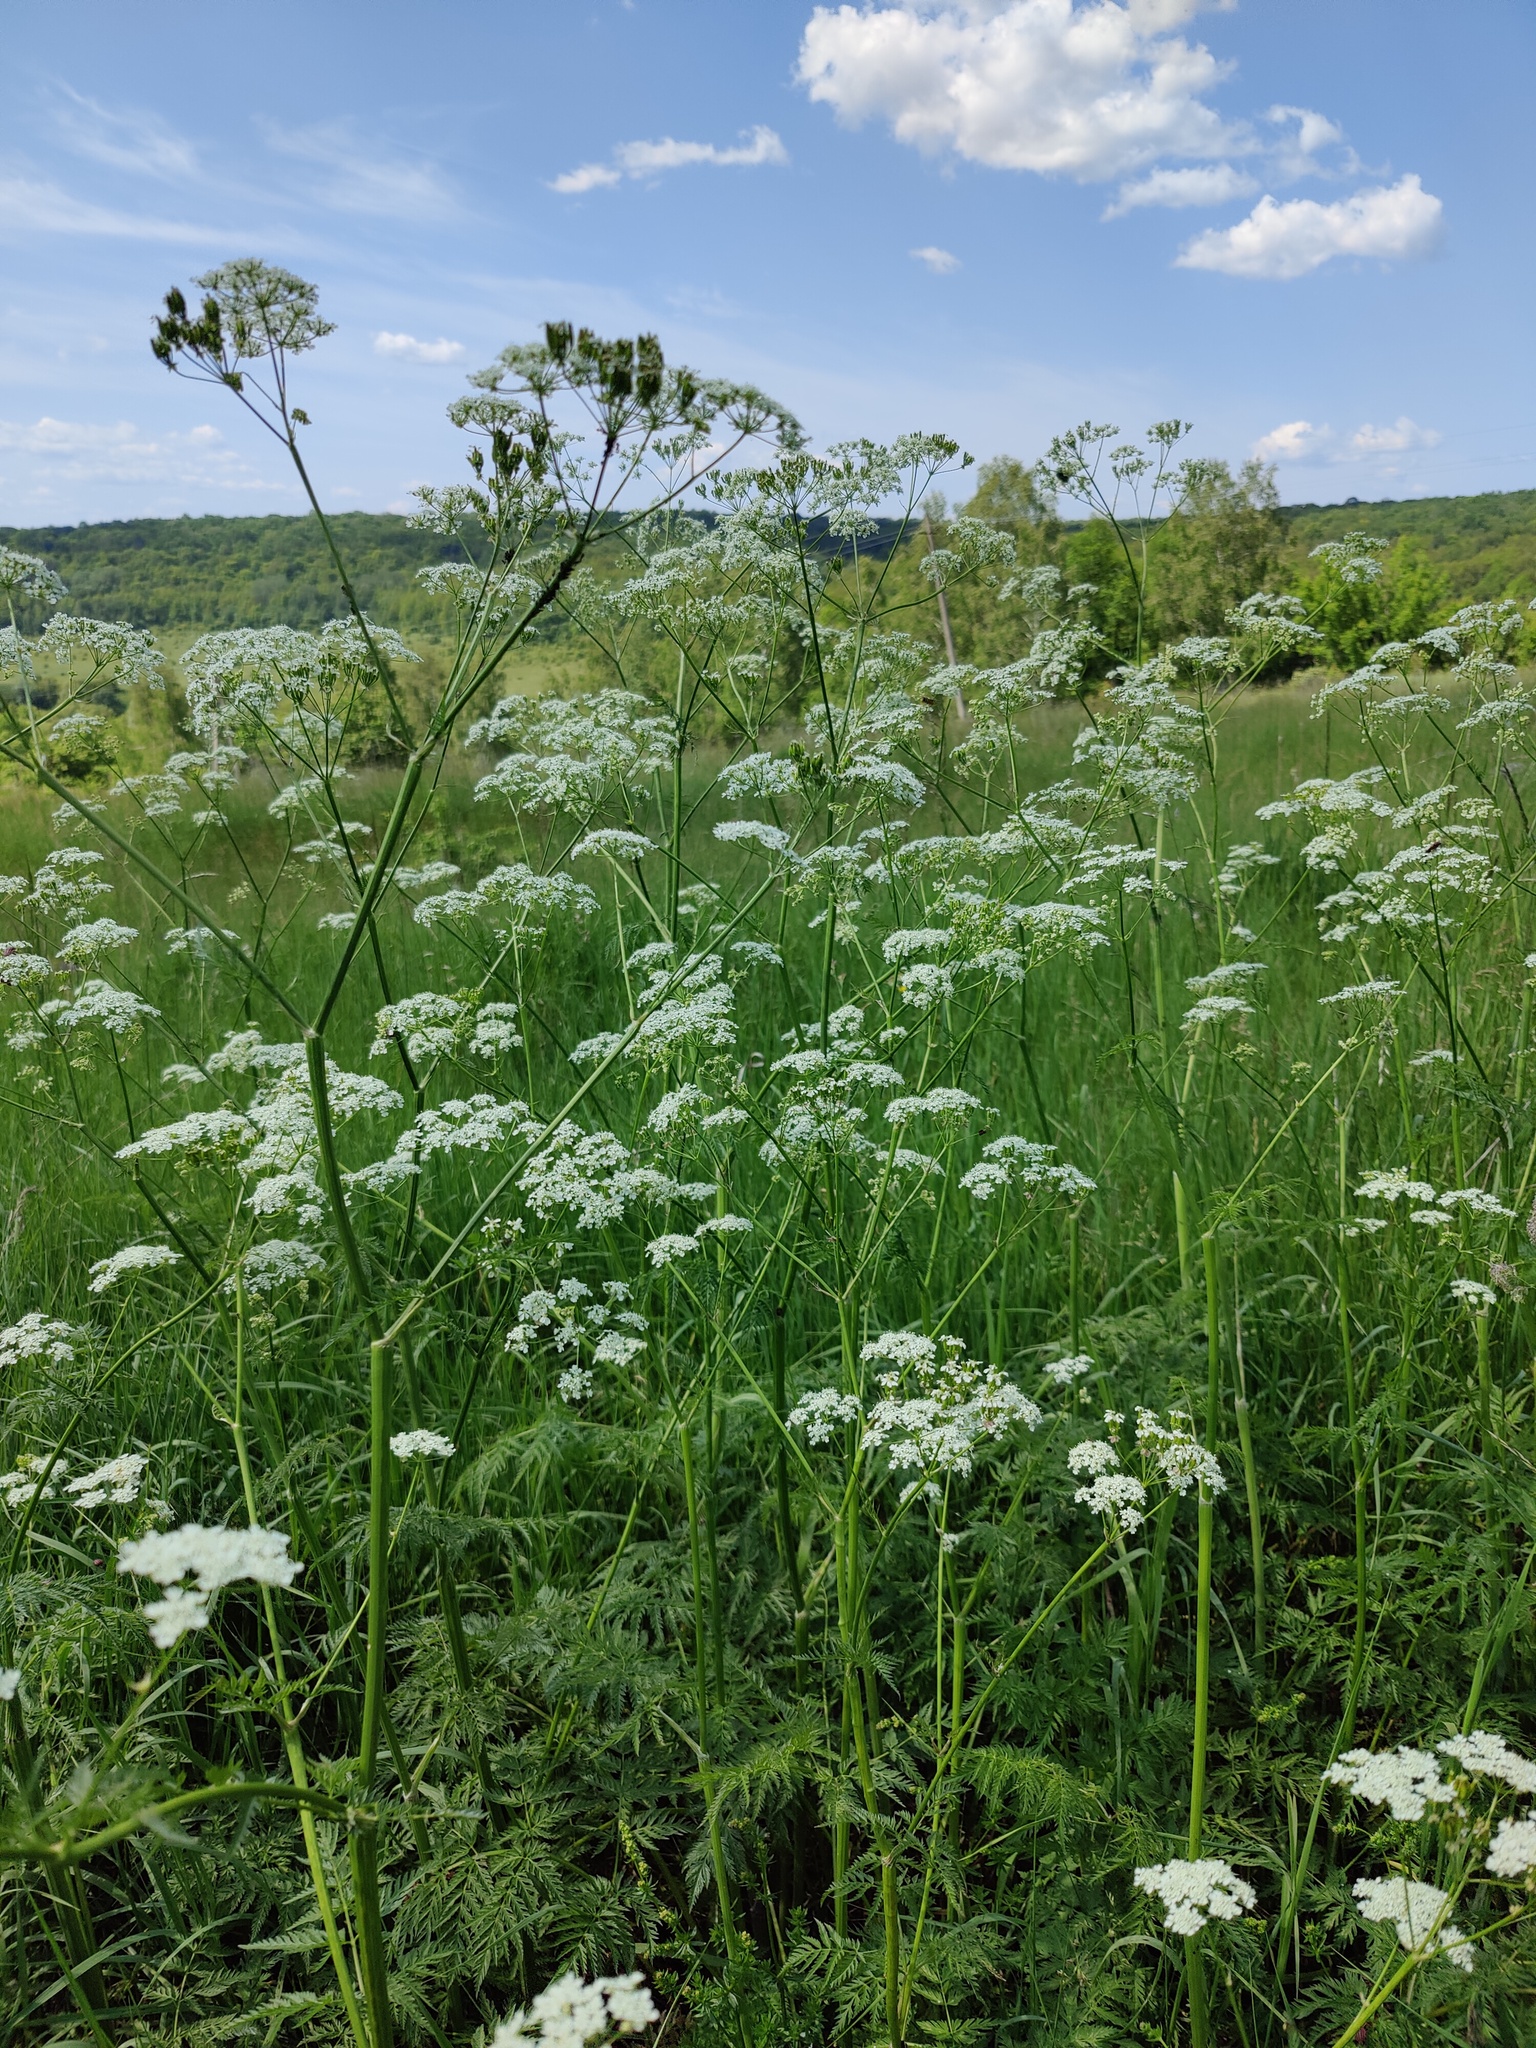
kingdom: Plantae
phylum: Tracheophyta
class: Magnoliopsida
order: Apiales
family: Apiaceae
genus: Anthriscus
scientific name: Anthriscus sylvestris
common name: Cow parsley
